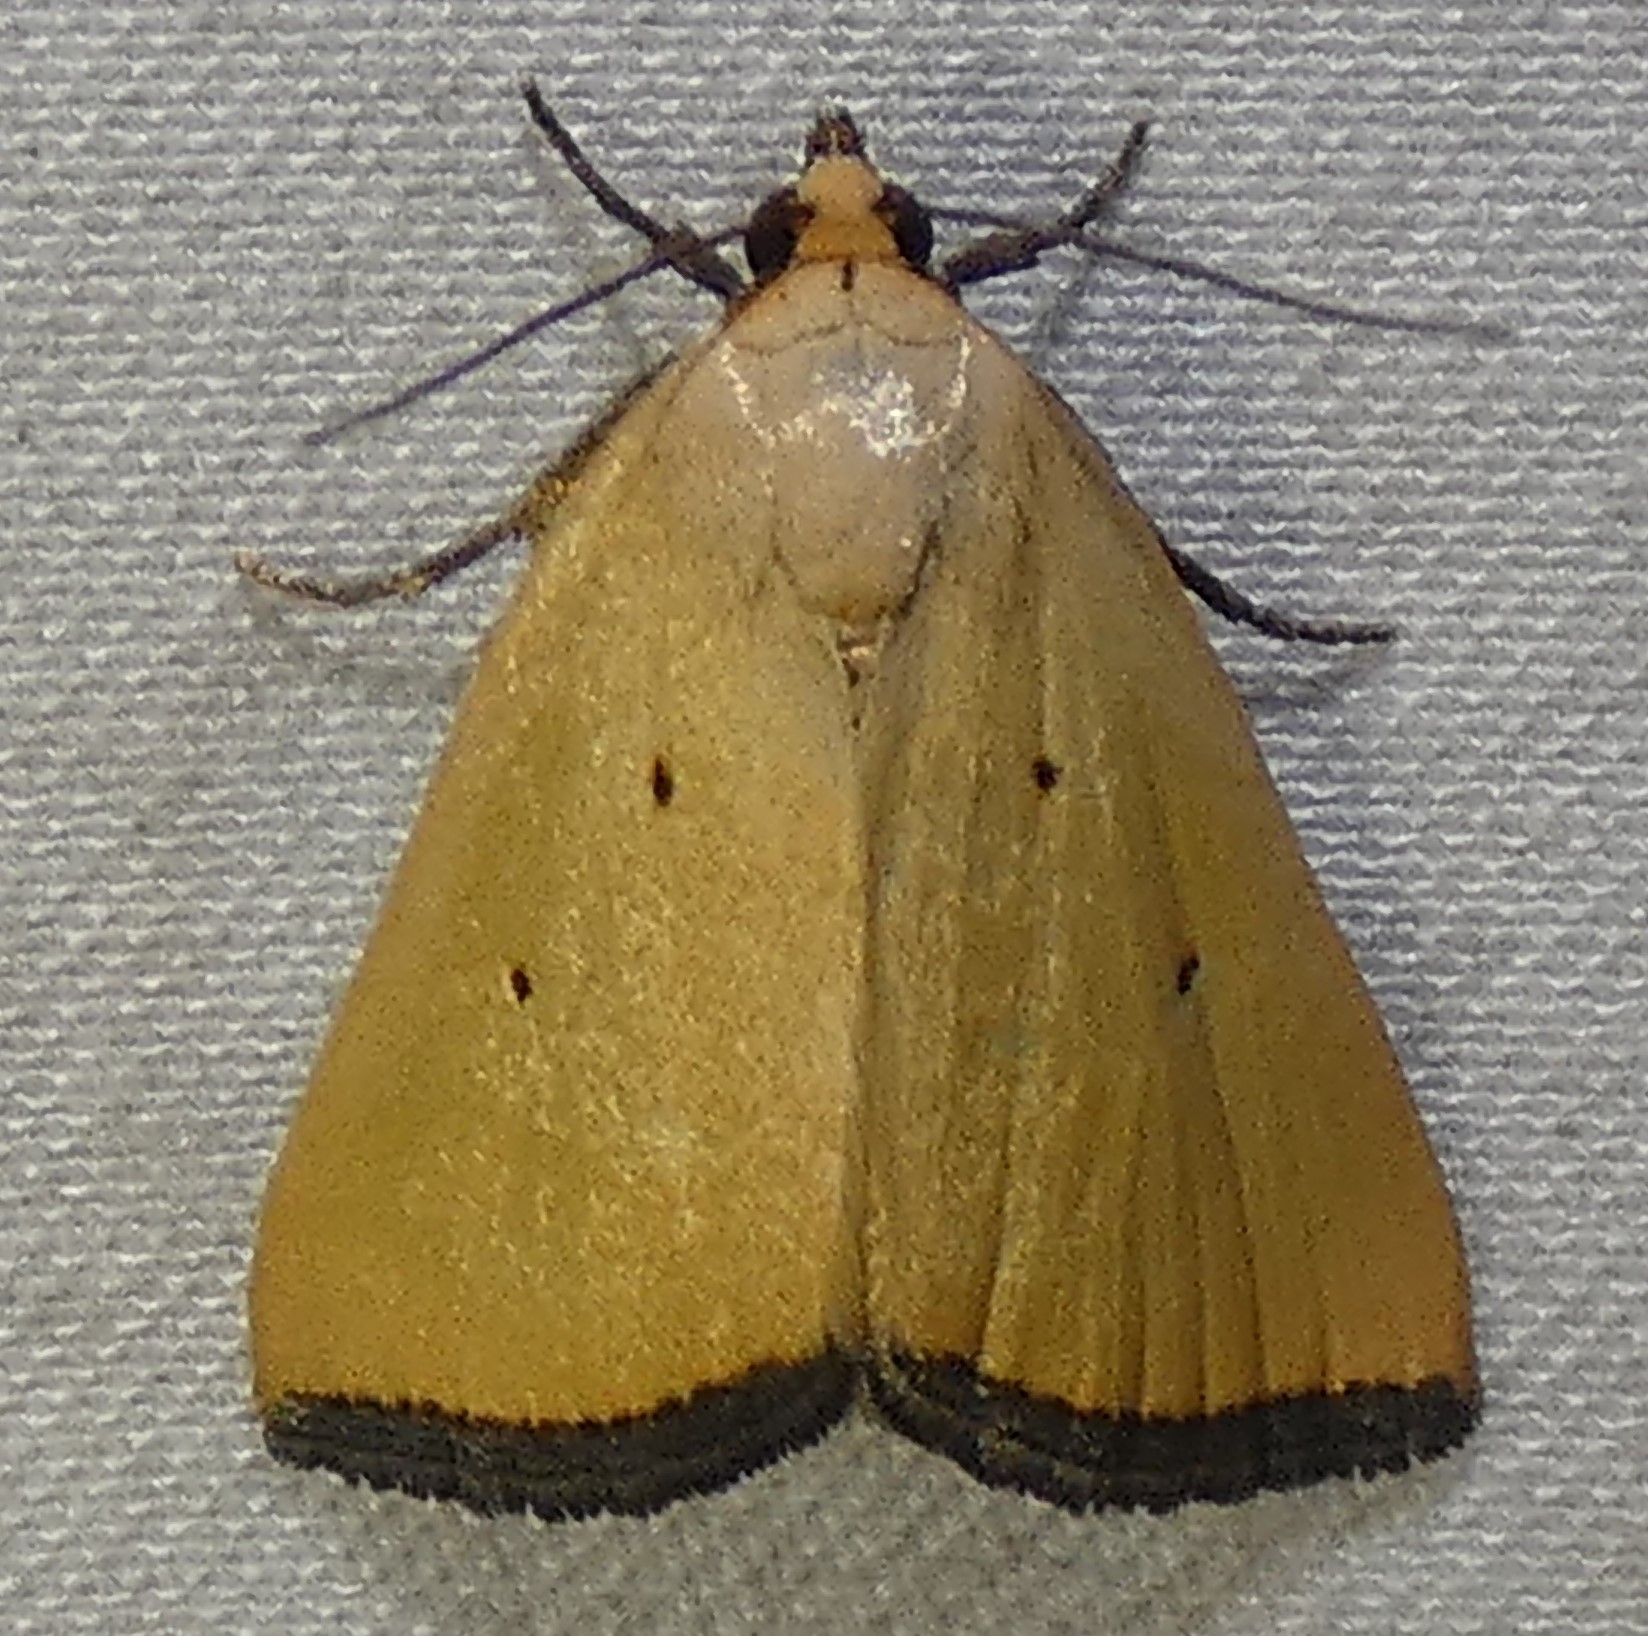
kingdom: Animalia
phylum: Arthropoda
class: Insecta
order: Lepidoptera
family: Noctuidae
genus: Marimatha
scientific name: Marimatha nigrofimbria
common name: Black-bordered lemon moth
